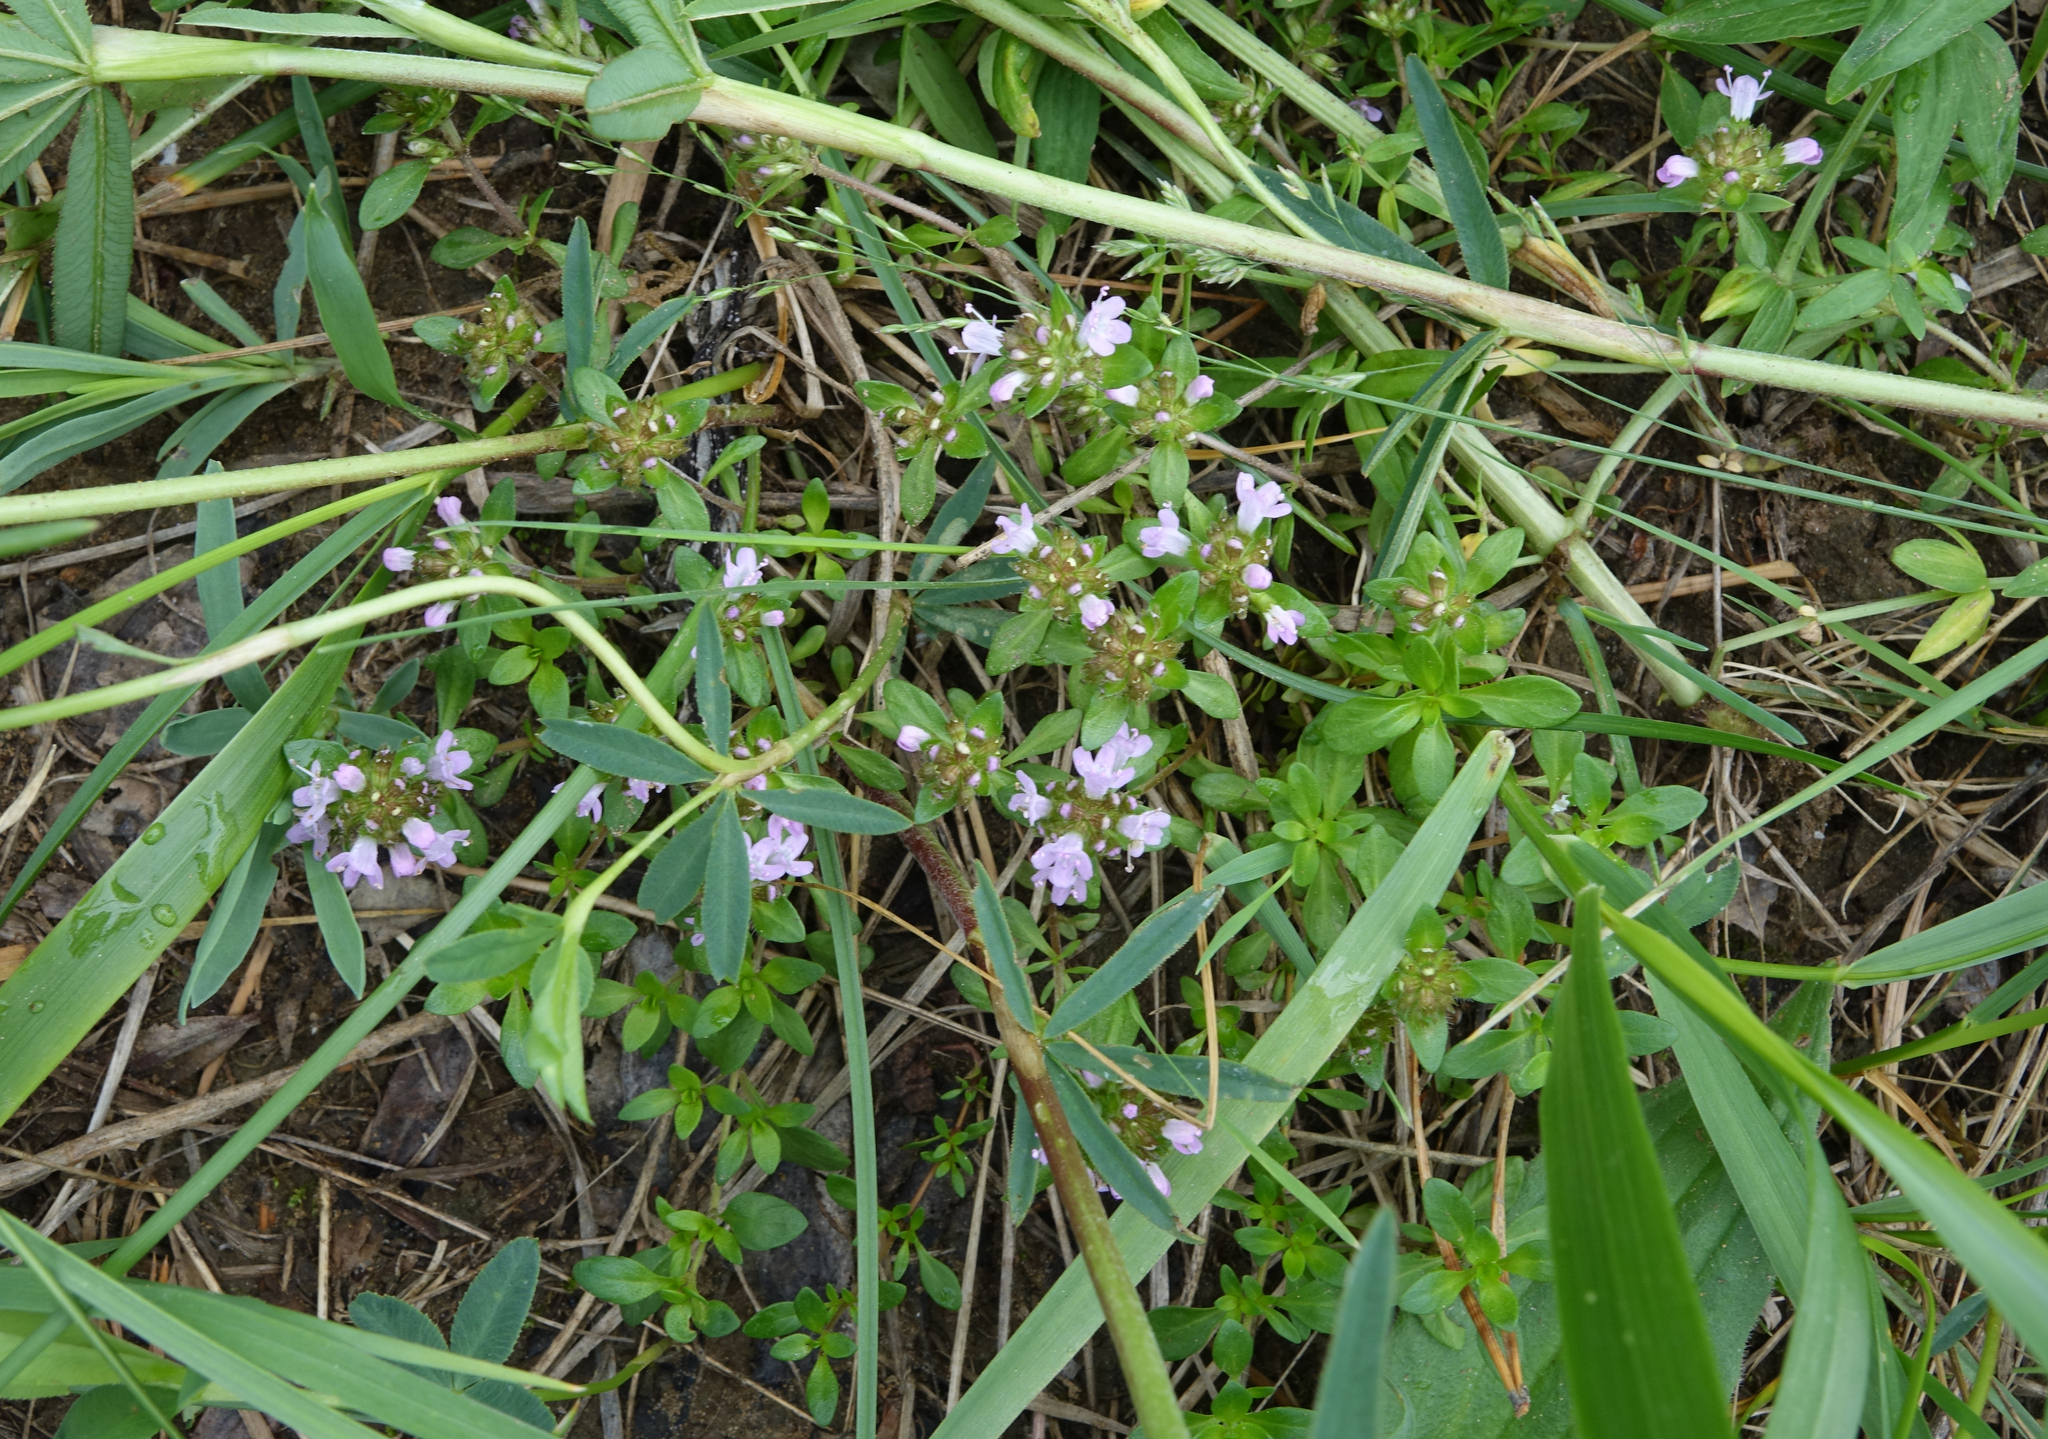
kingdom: Plantae
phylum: Tracheophyta
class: Magnoliopsida
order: Lamiales
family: Lamiaceae
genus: Thymus
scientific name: Thymus sibiricus
